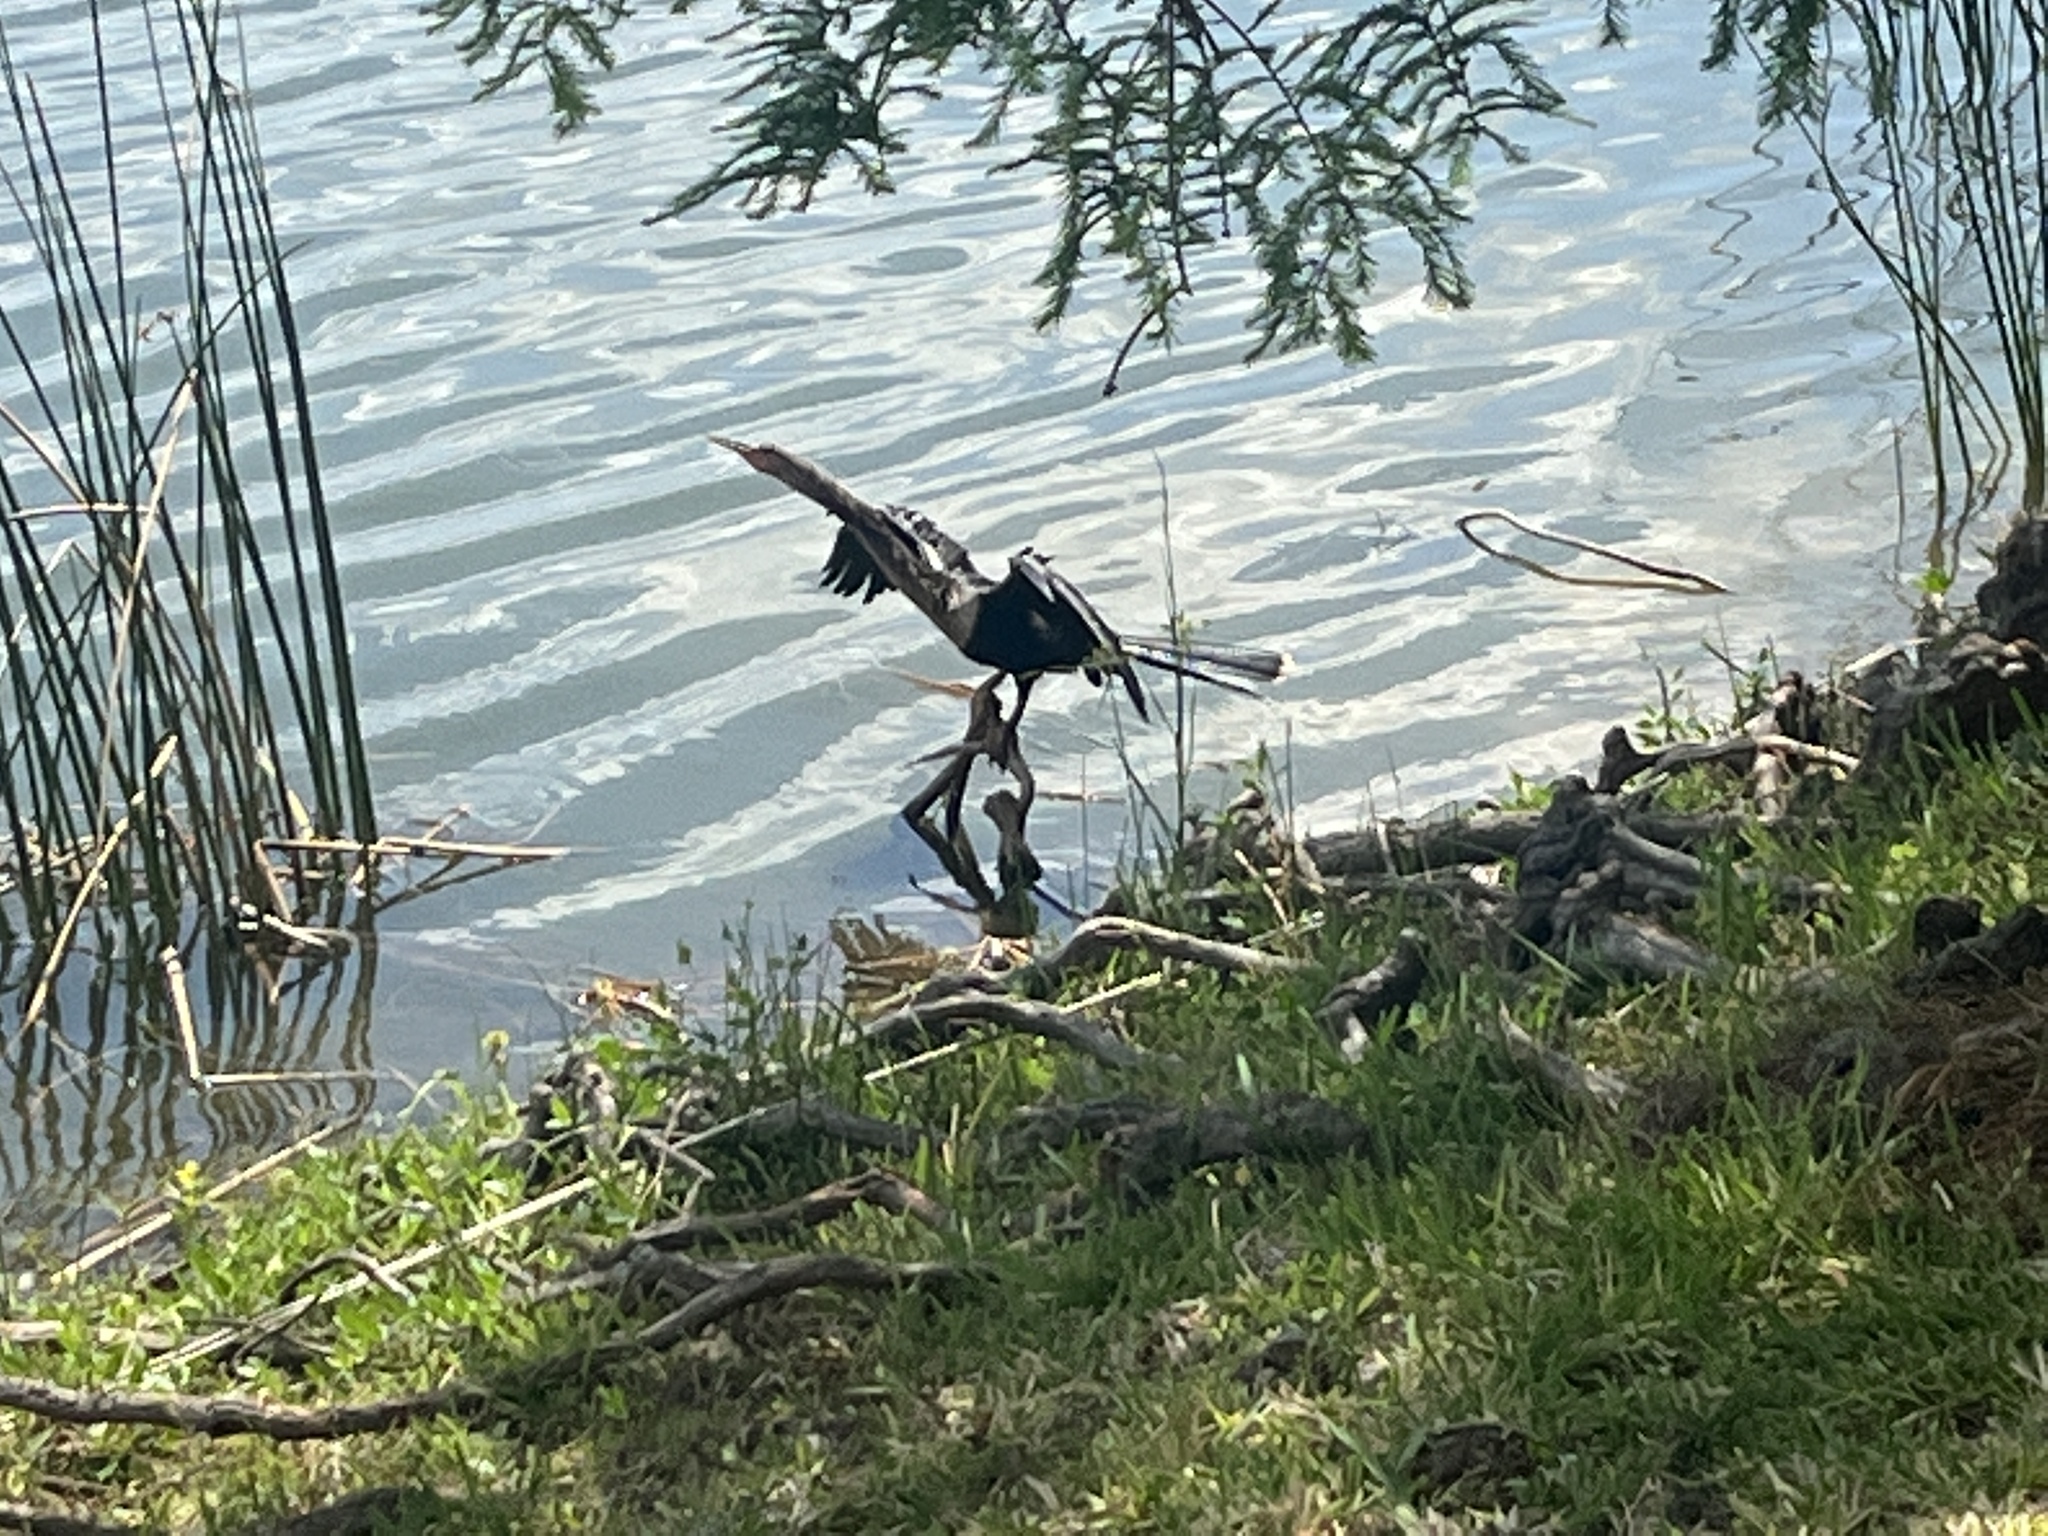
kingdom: Animalia
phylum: Chordata
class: Aves
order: Suliformes
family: Anhingidae
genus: Anhinga
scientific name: Anhinga anhinga
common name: Anhinga
